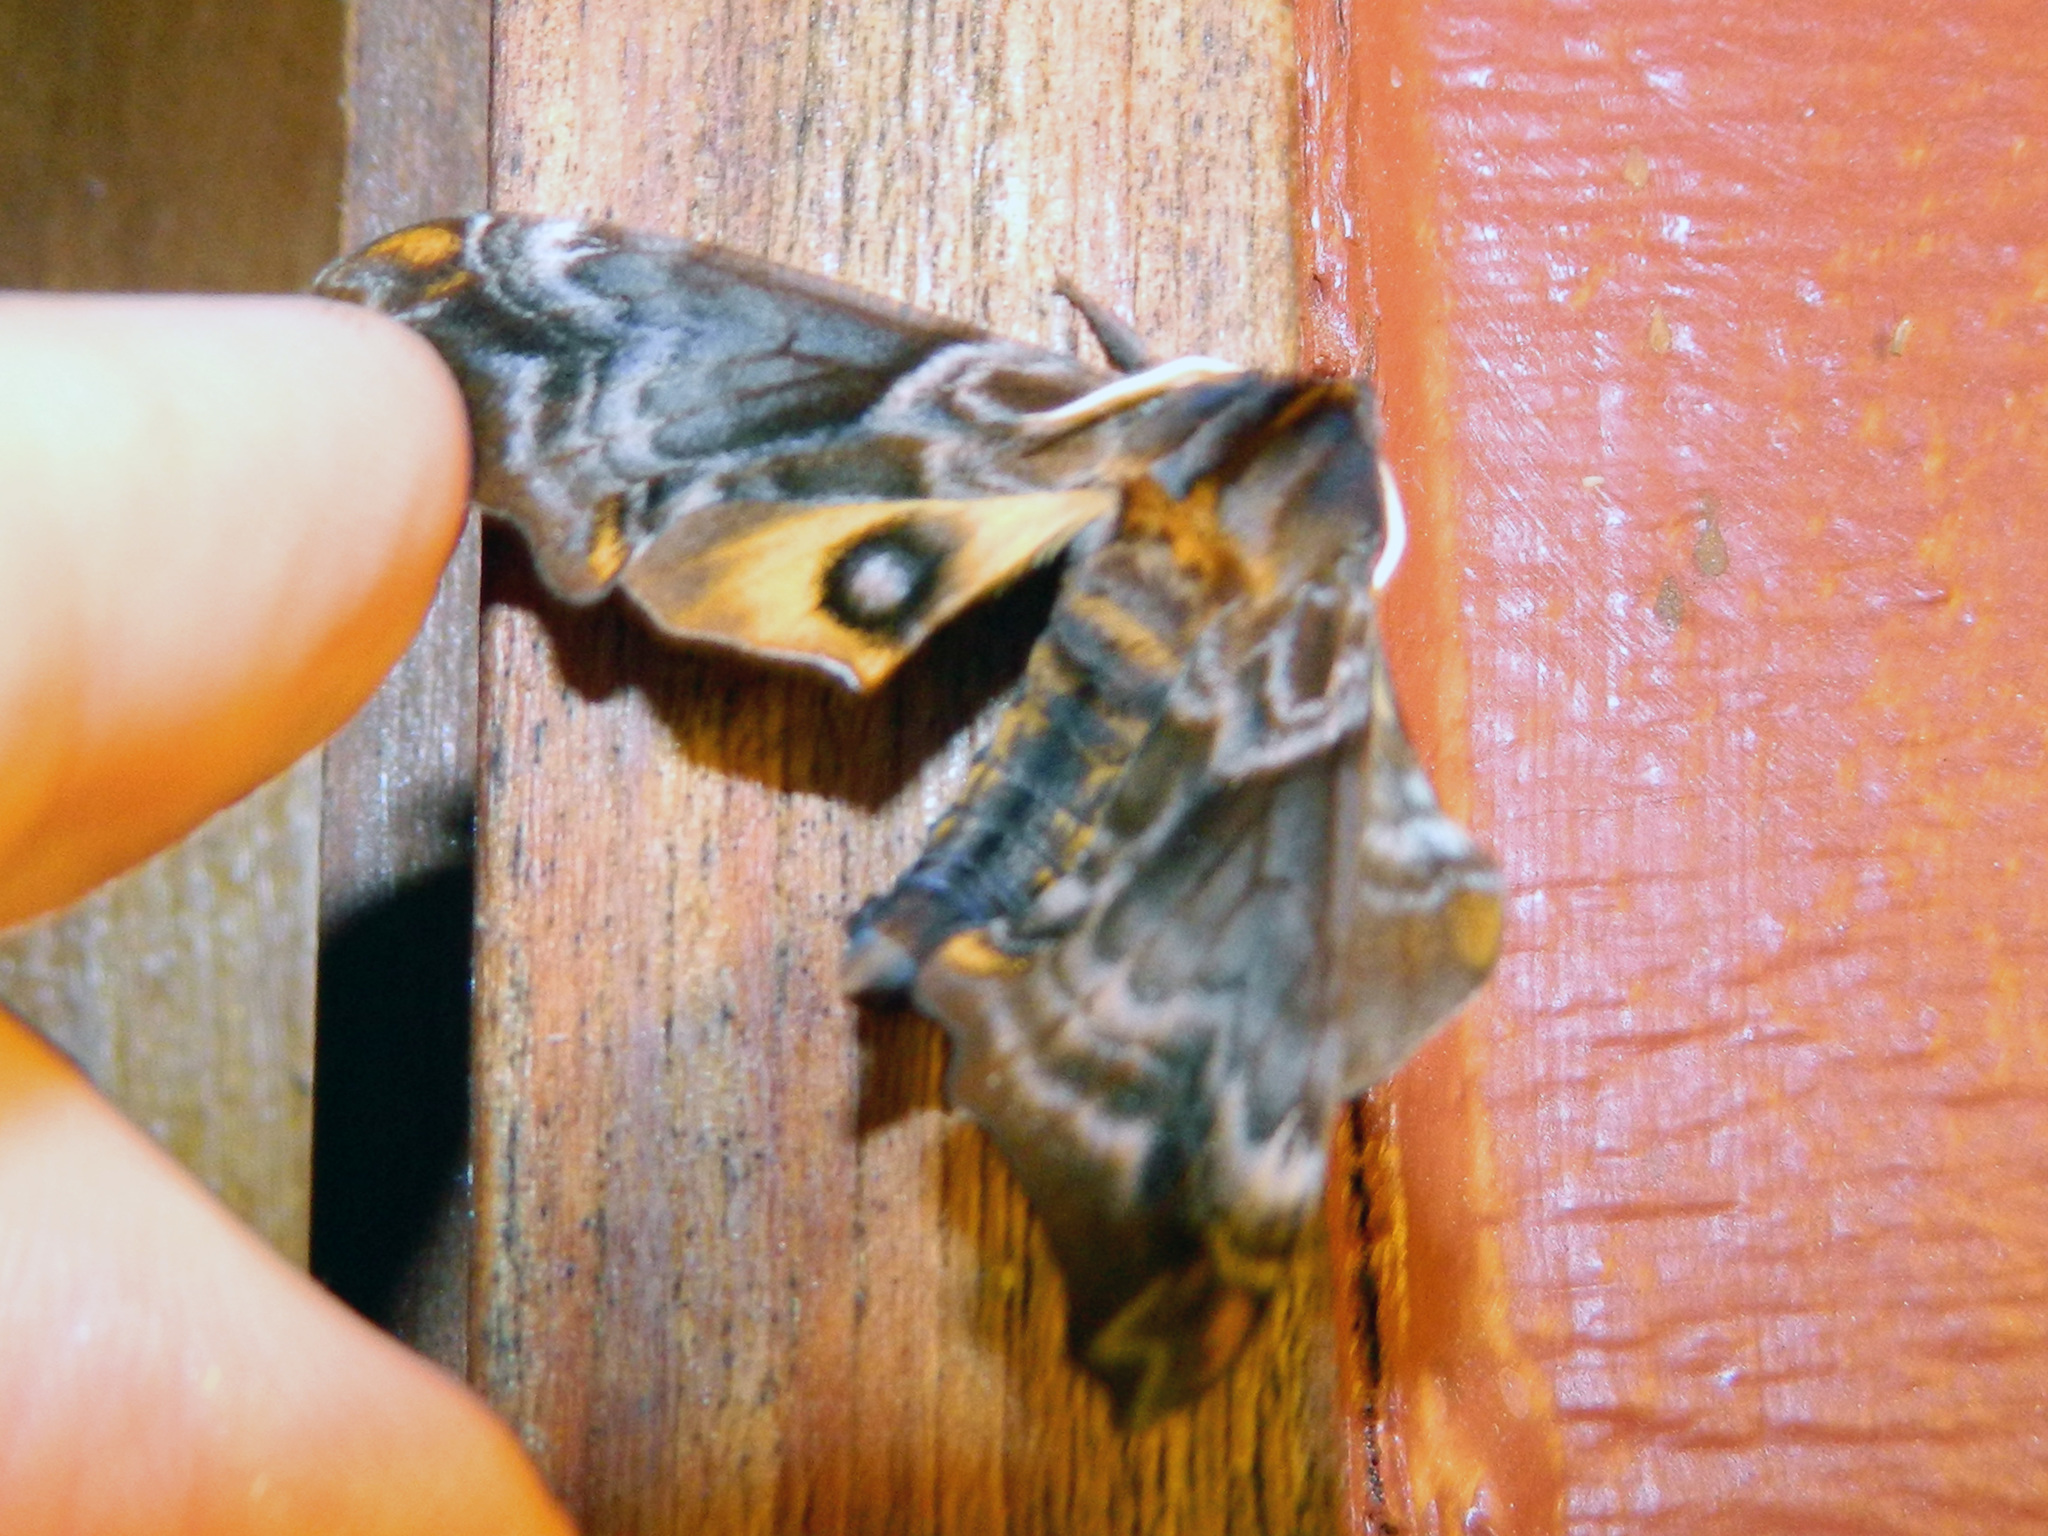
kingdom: Animalia
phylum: Arthropoda
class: Insecta
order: Lepidoptera
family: Sphingidae
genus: Paonias
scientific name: Paonias myops
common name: Small-eyed sphinx
